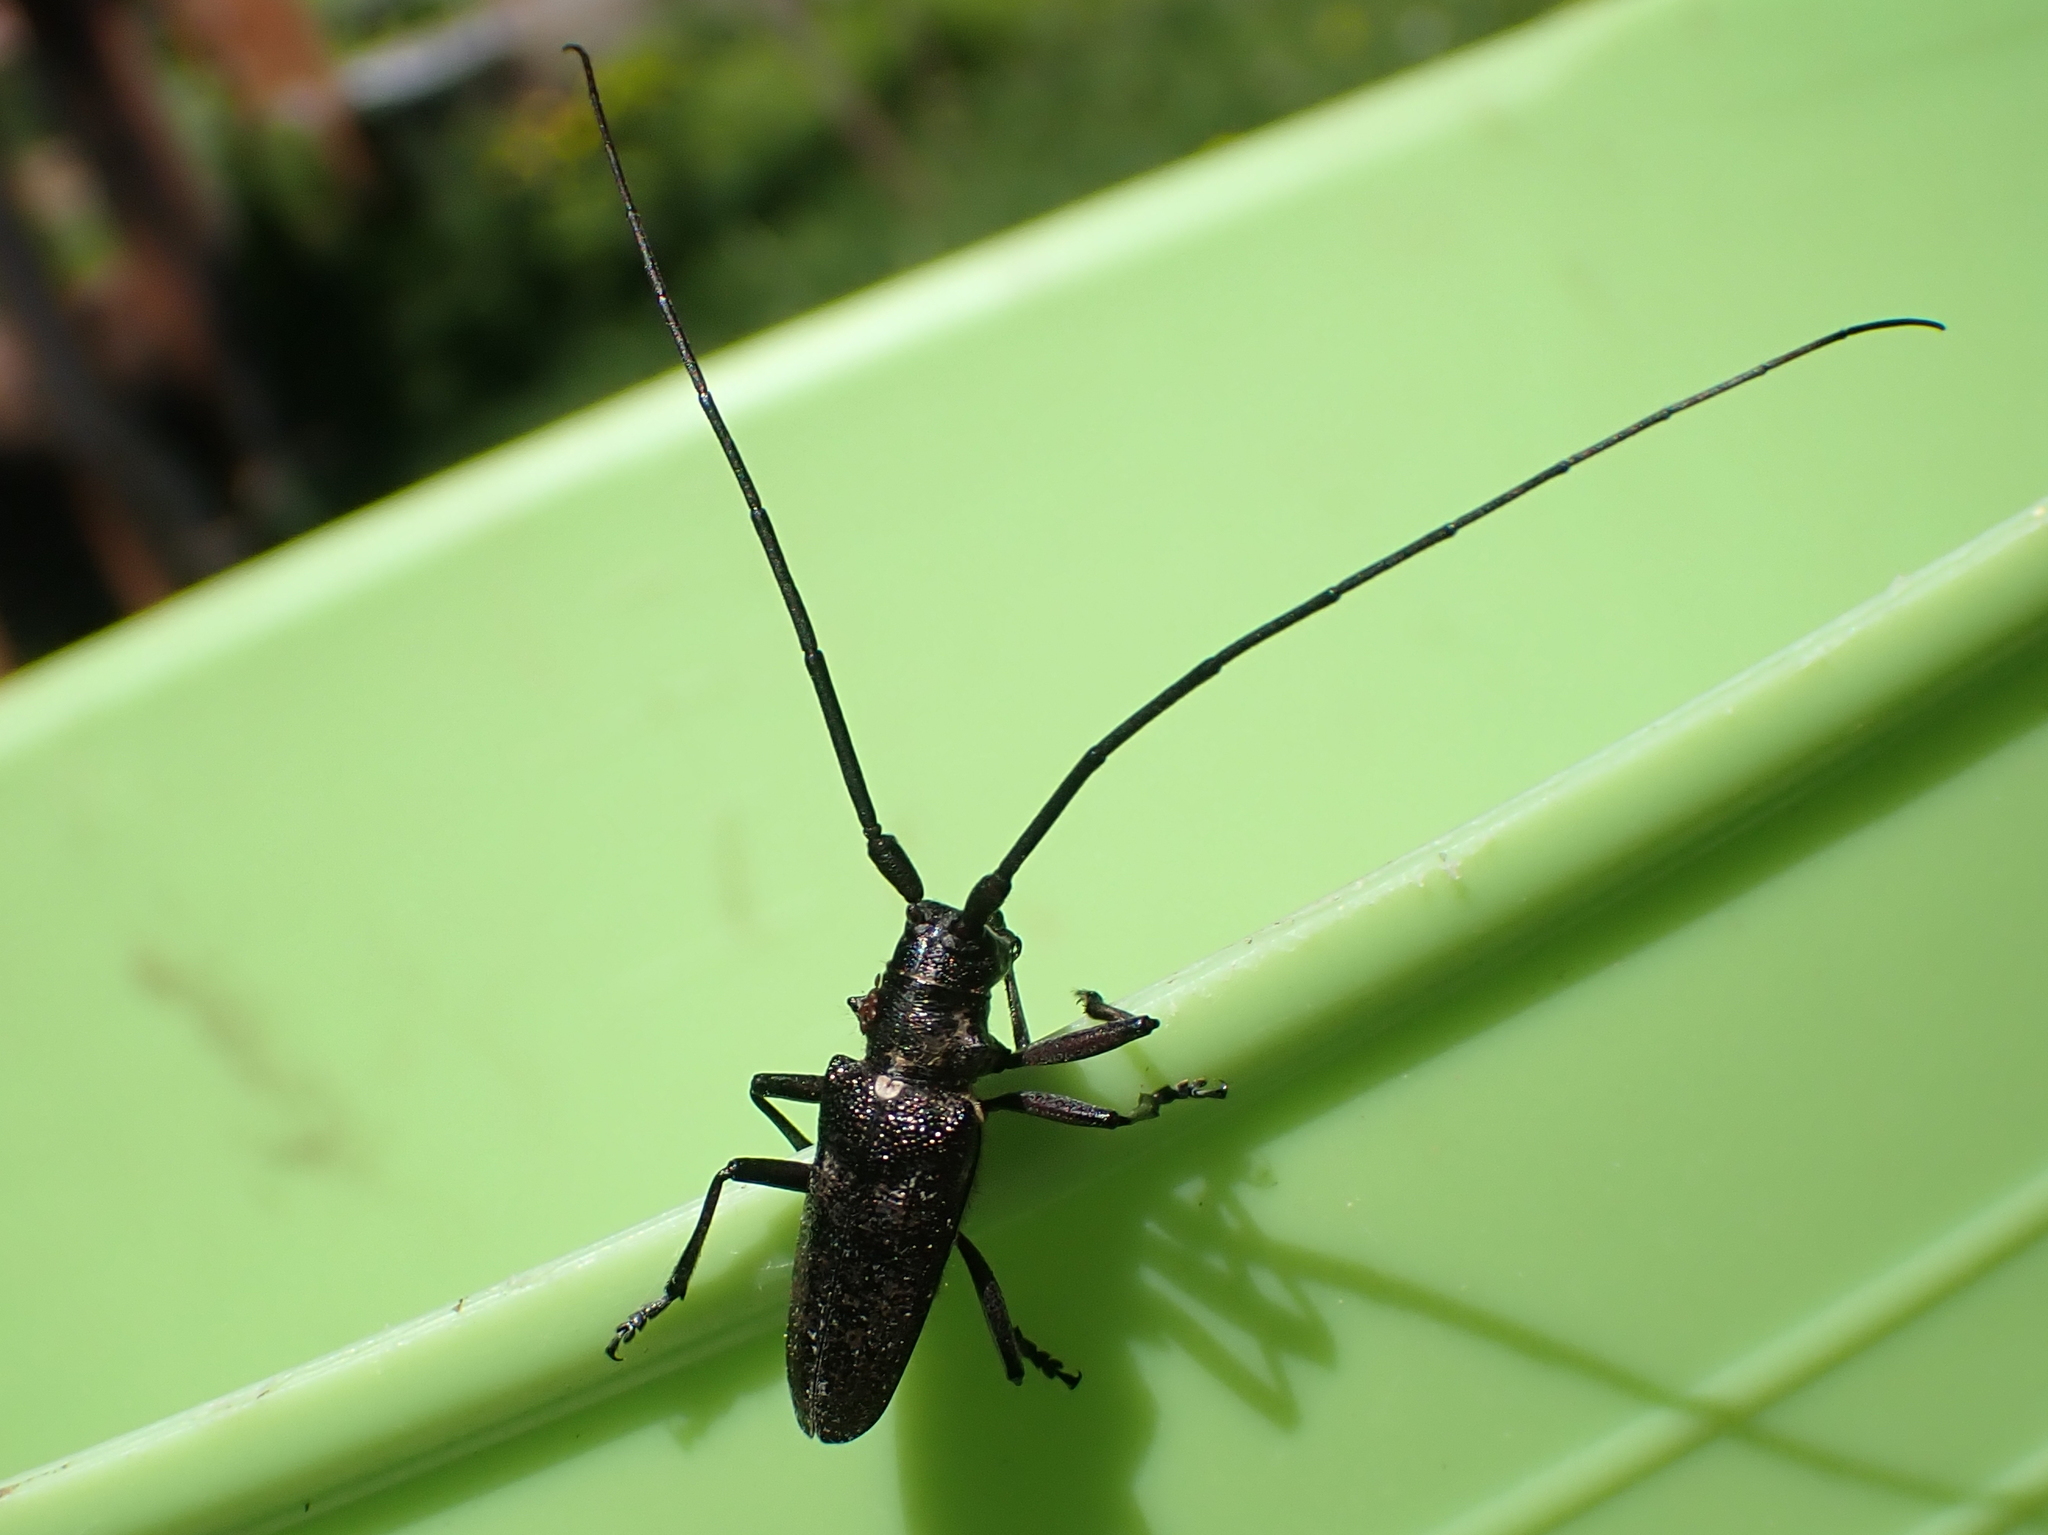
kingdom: Animalia
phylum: Arthropoda
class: Insecta
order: Coleoptera
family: Cerambycidae
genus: Monochamus
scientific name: Monochamus scutellatus
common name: White-spotted sawyer beetle
